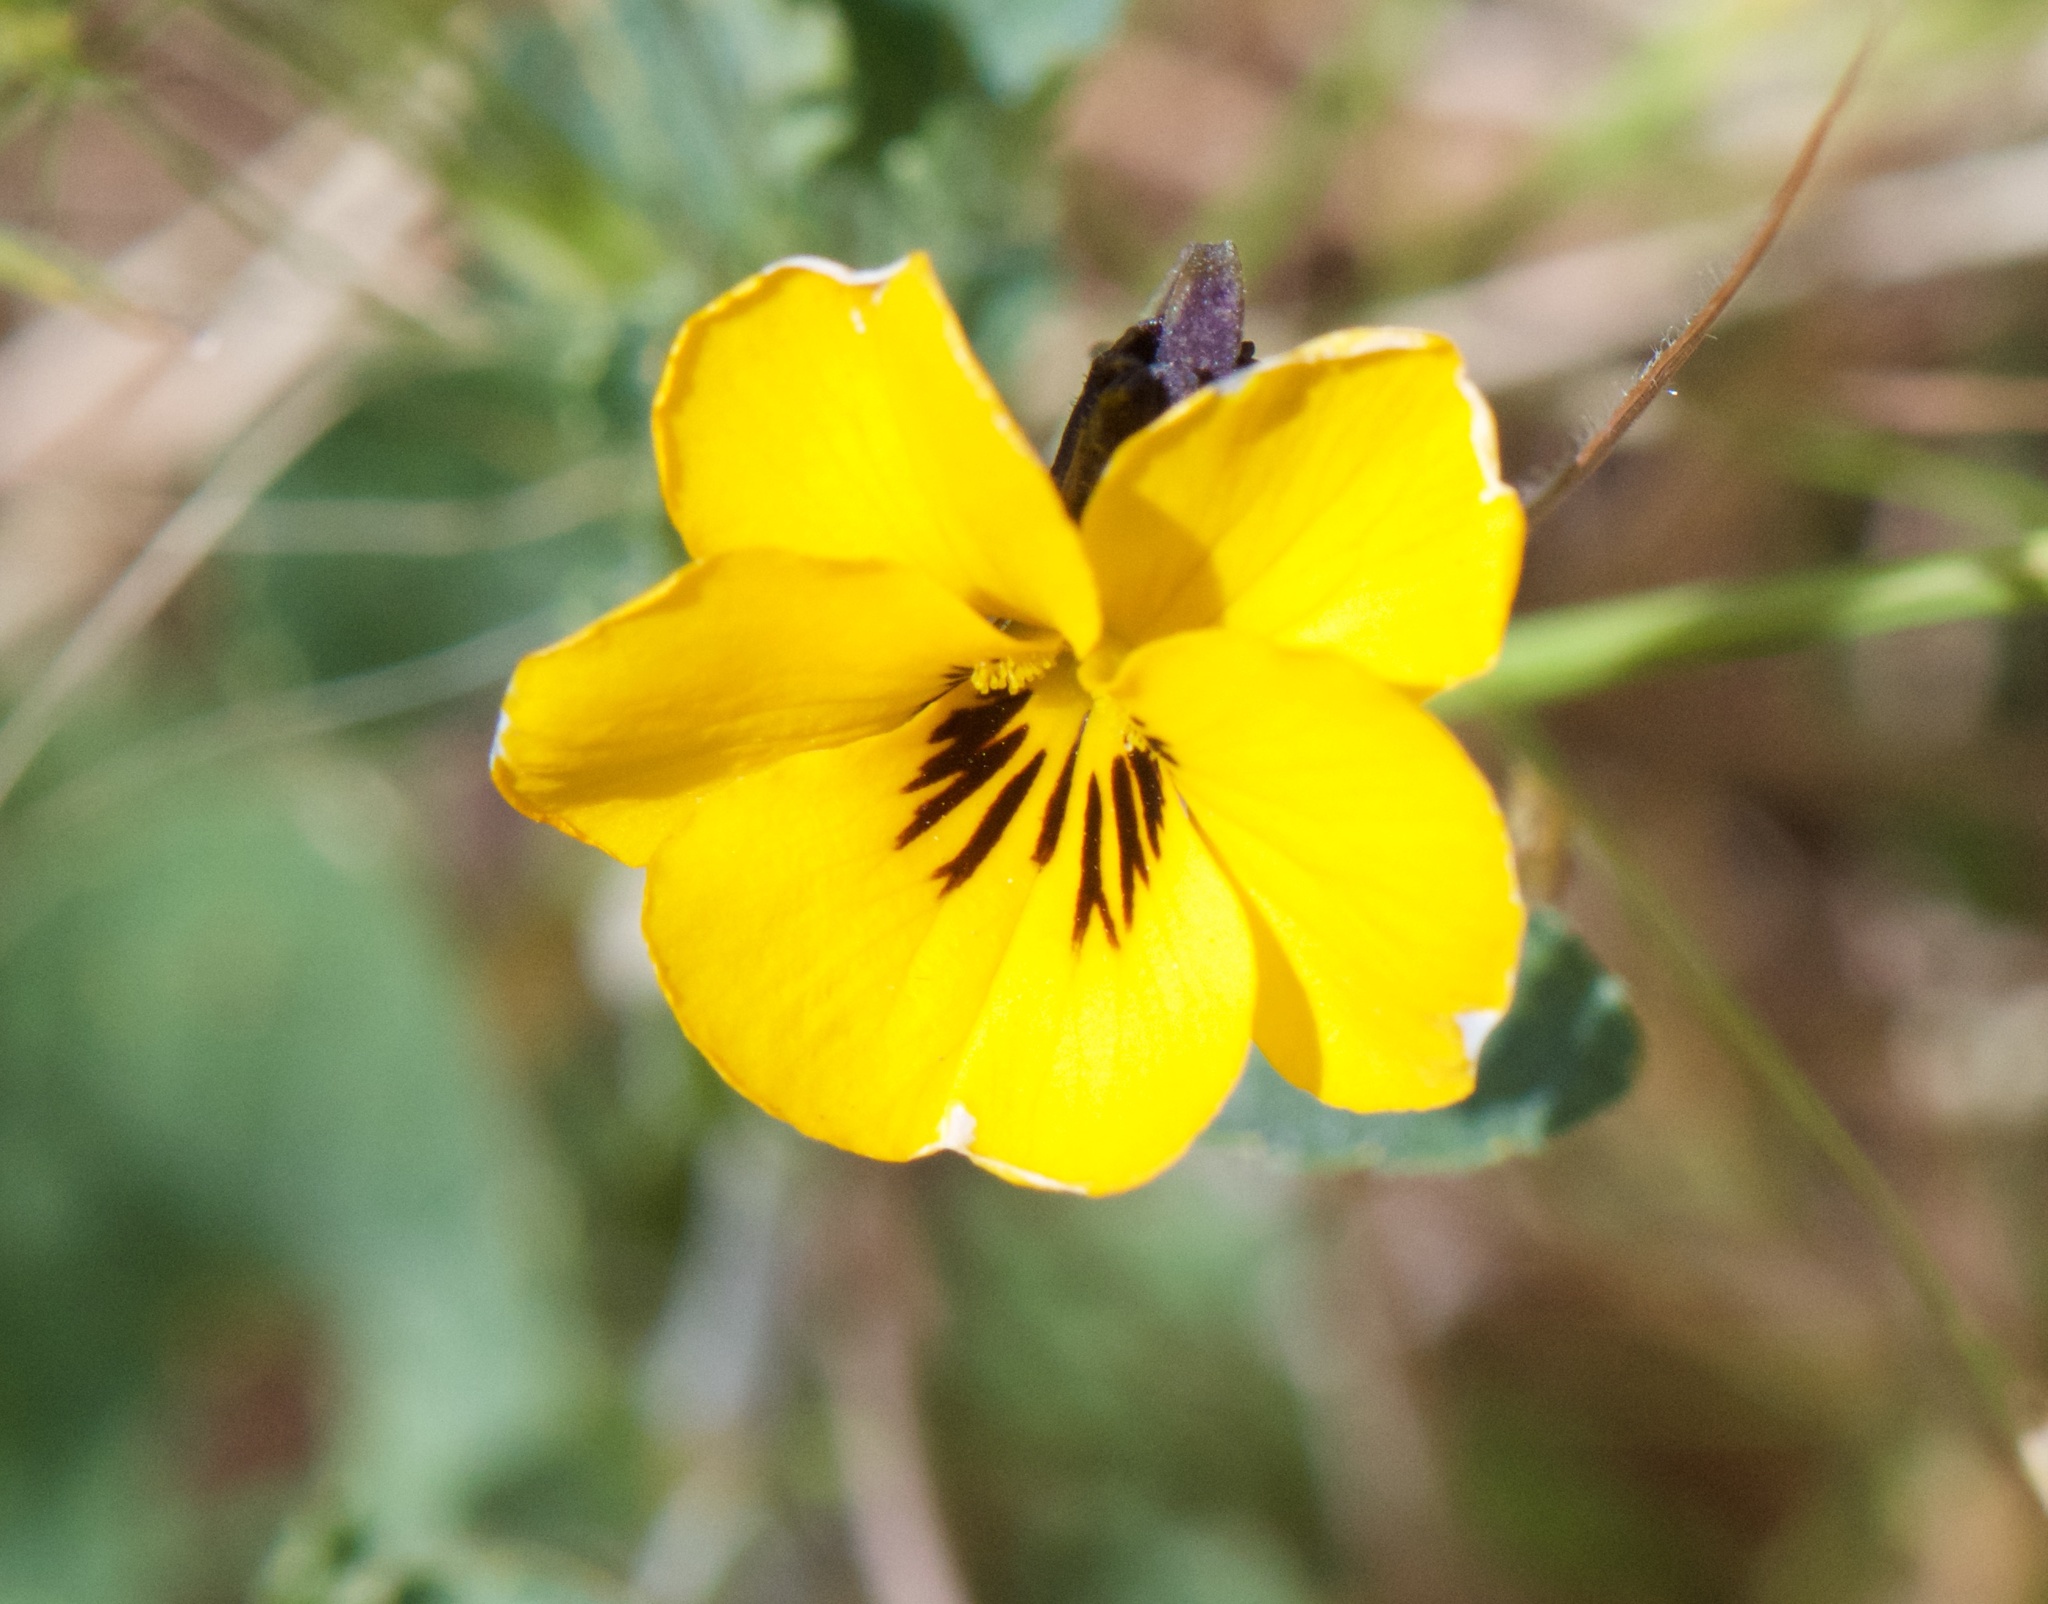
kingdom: Plantae
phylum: Tracheophyta
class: Magnoliopsida
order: Malpighiales
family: Violaceae
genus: Viola
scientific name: Viola pedunculata
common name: California golden violet
